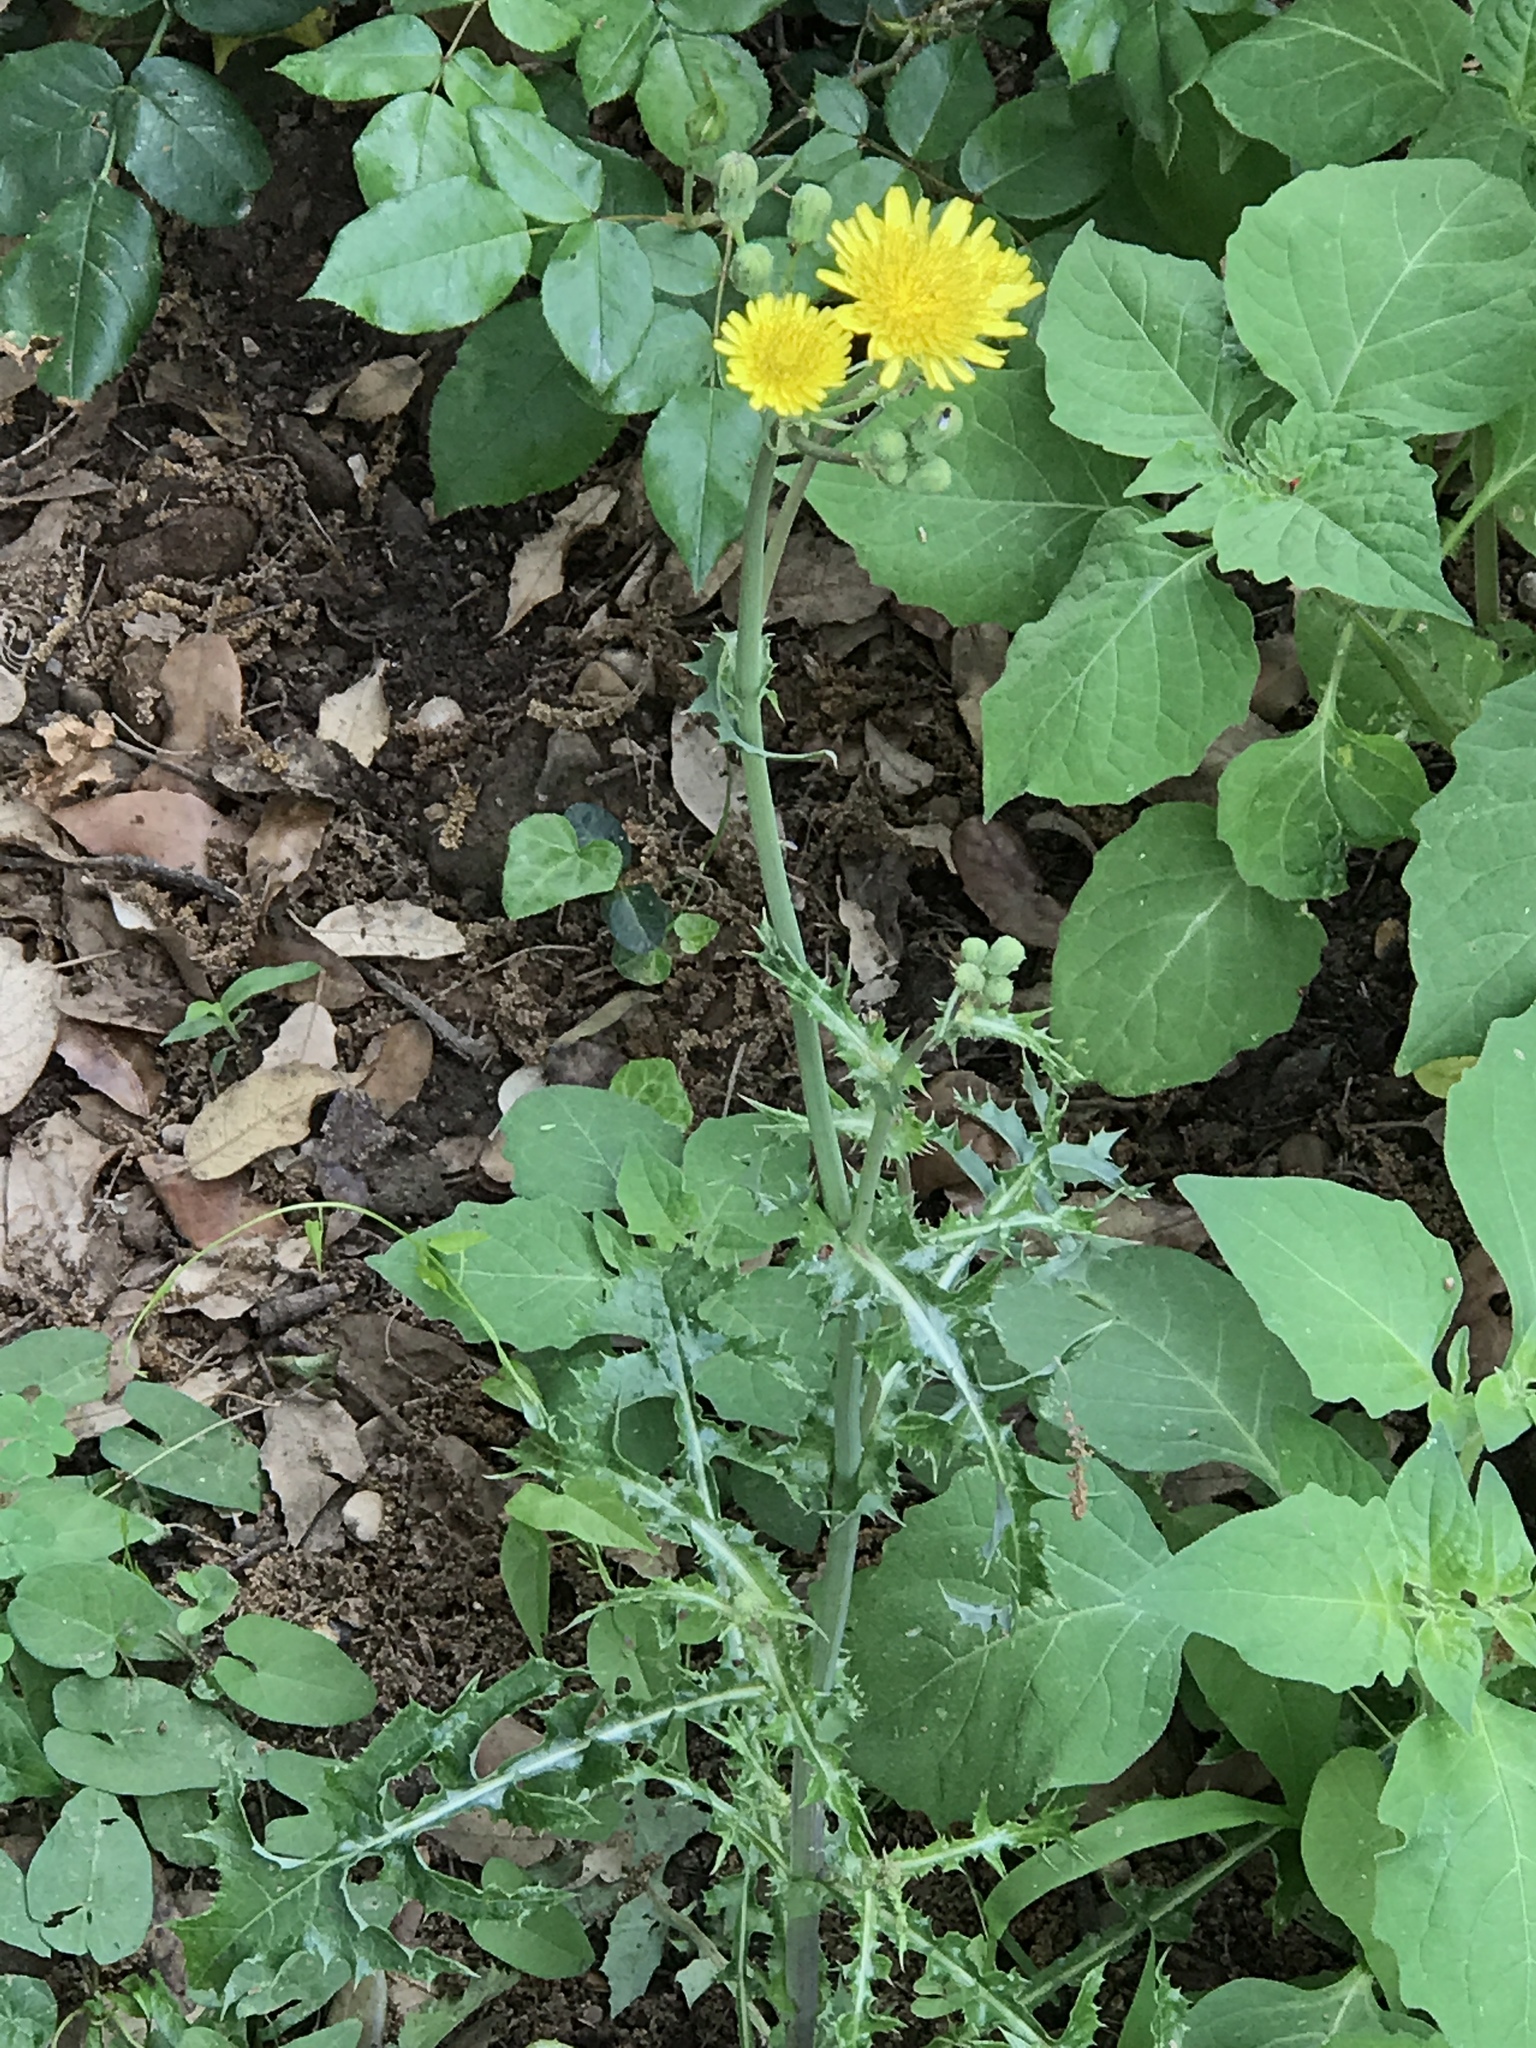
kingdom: Plantae
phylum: Tracheophyta
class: Magnoliopsida
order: Asterales
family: Asteraceae
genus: Sonchus
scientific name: Sonchus oleraceus
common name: Common sowthistle
